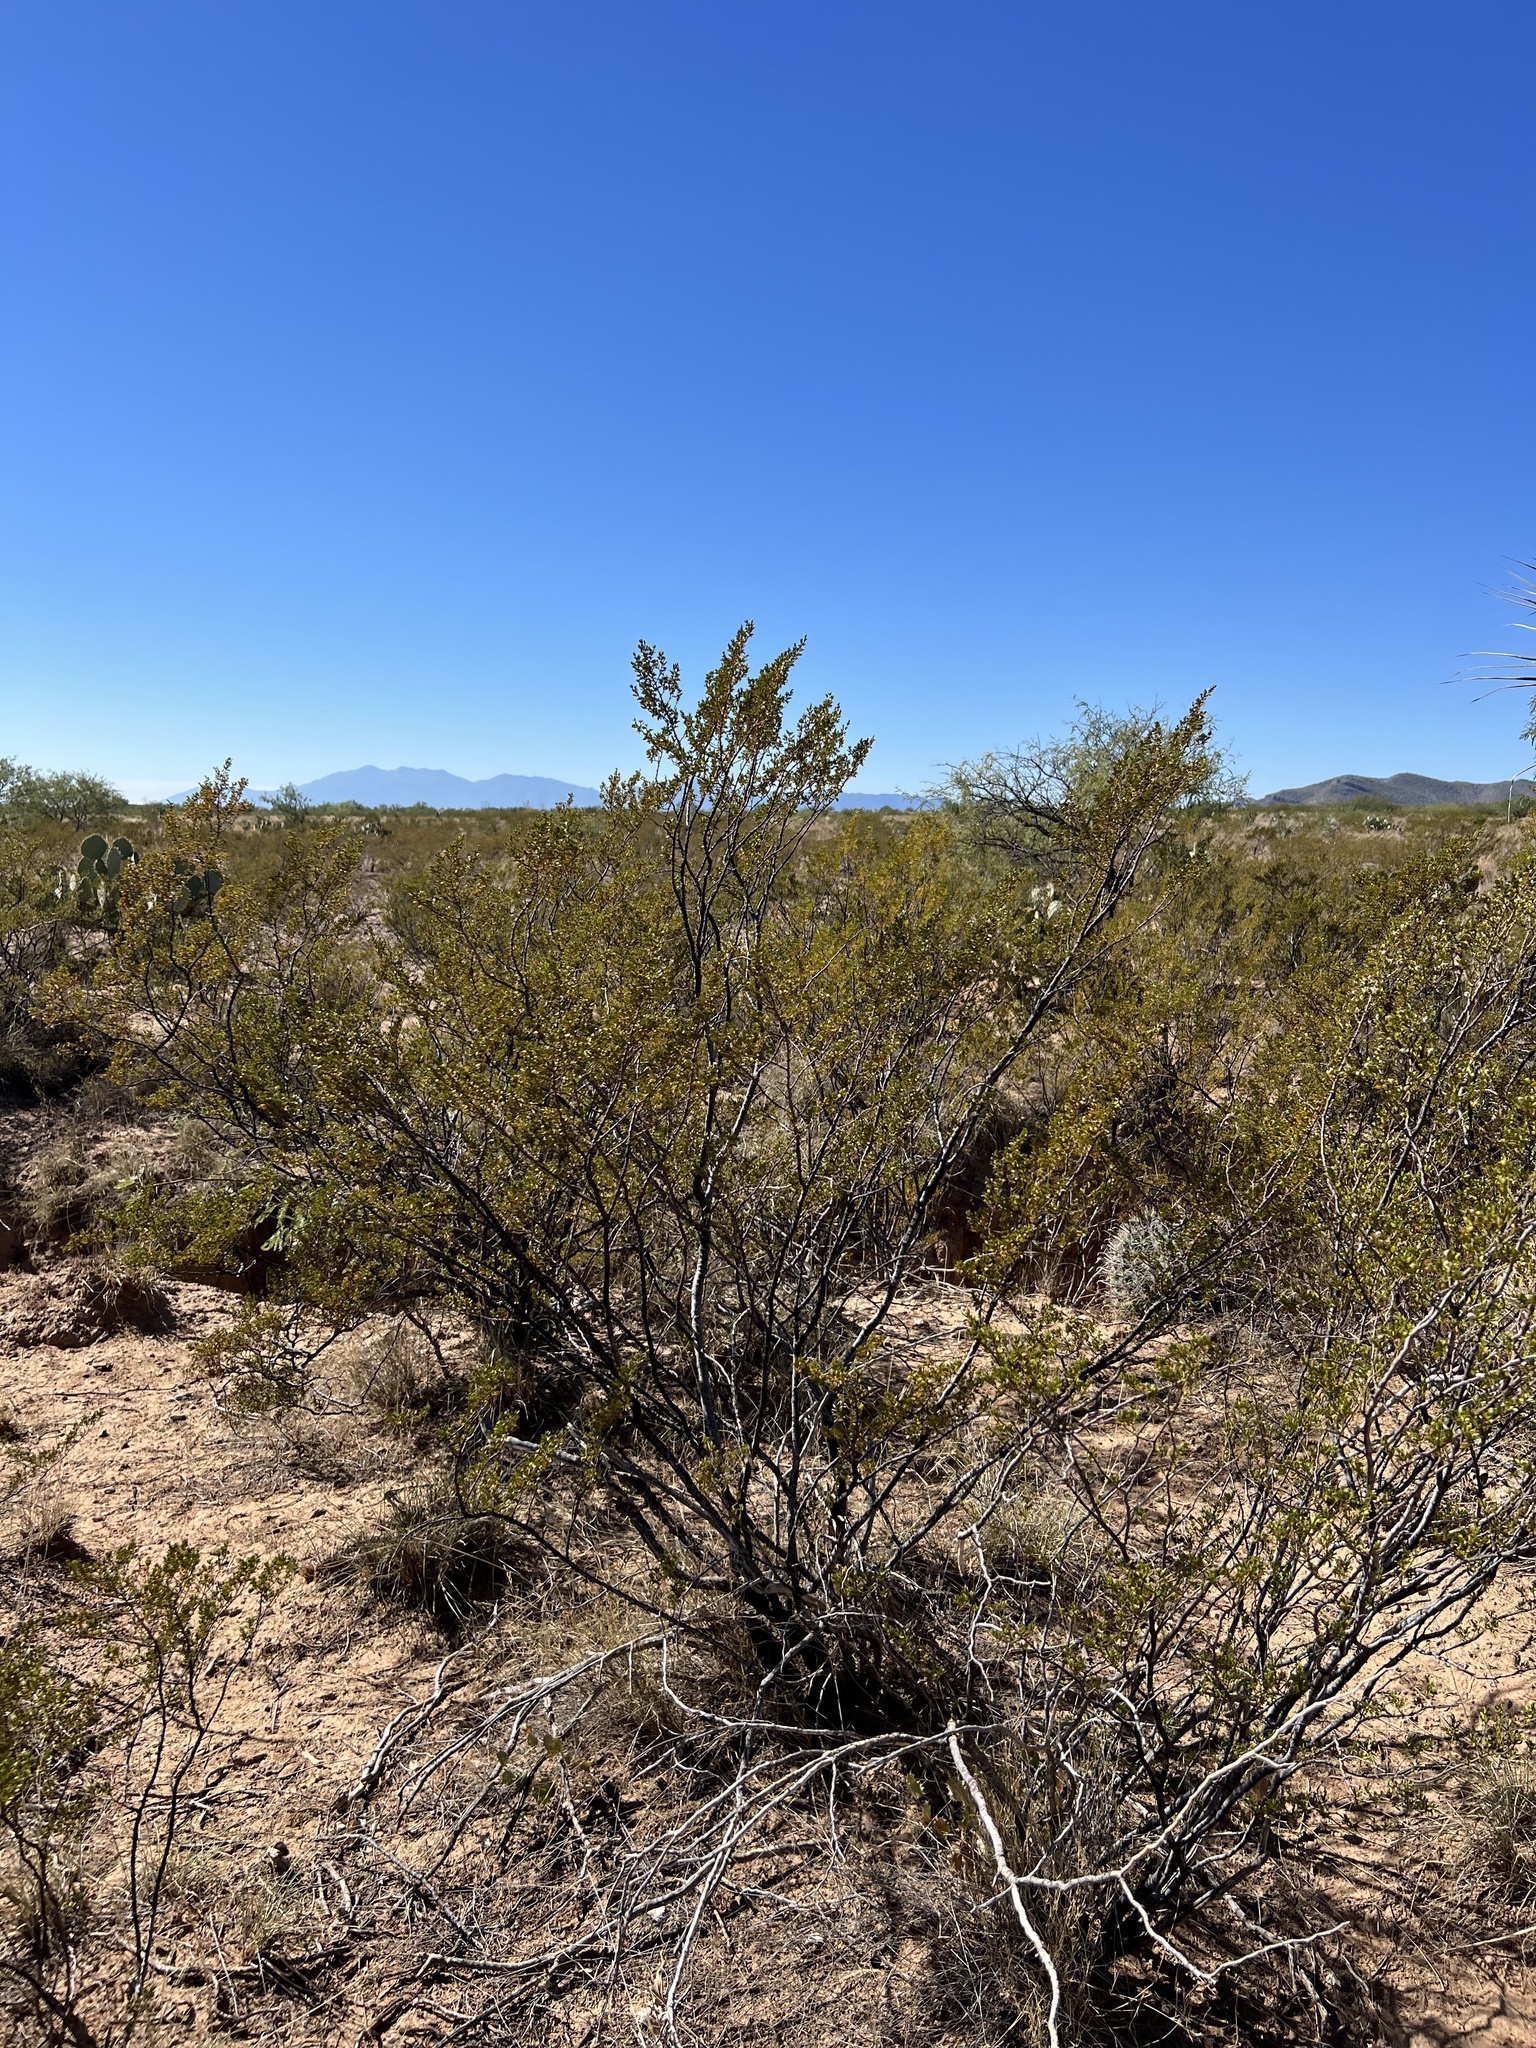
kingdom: Plantae
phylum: Tracheophyta
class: Magnoliopsida
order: Zygophyllales
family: Zygophyllaceae
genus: Larrea
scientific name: Larrea tridentata
